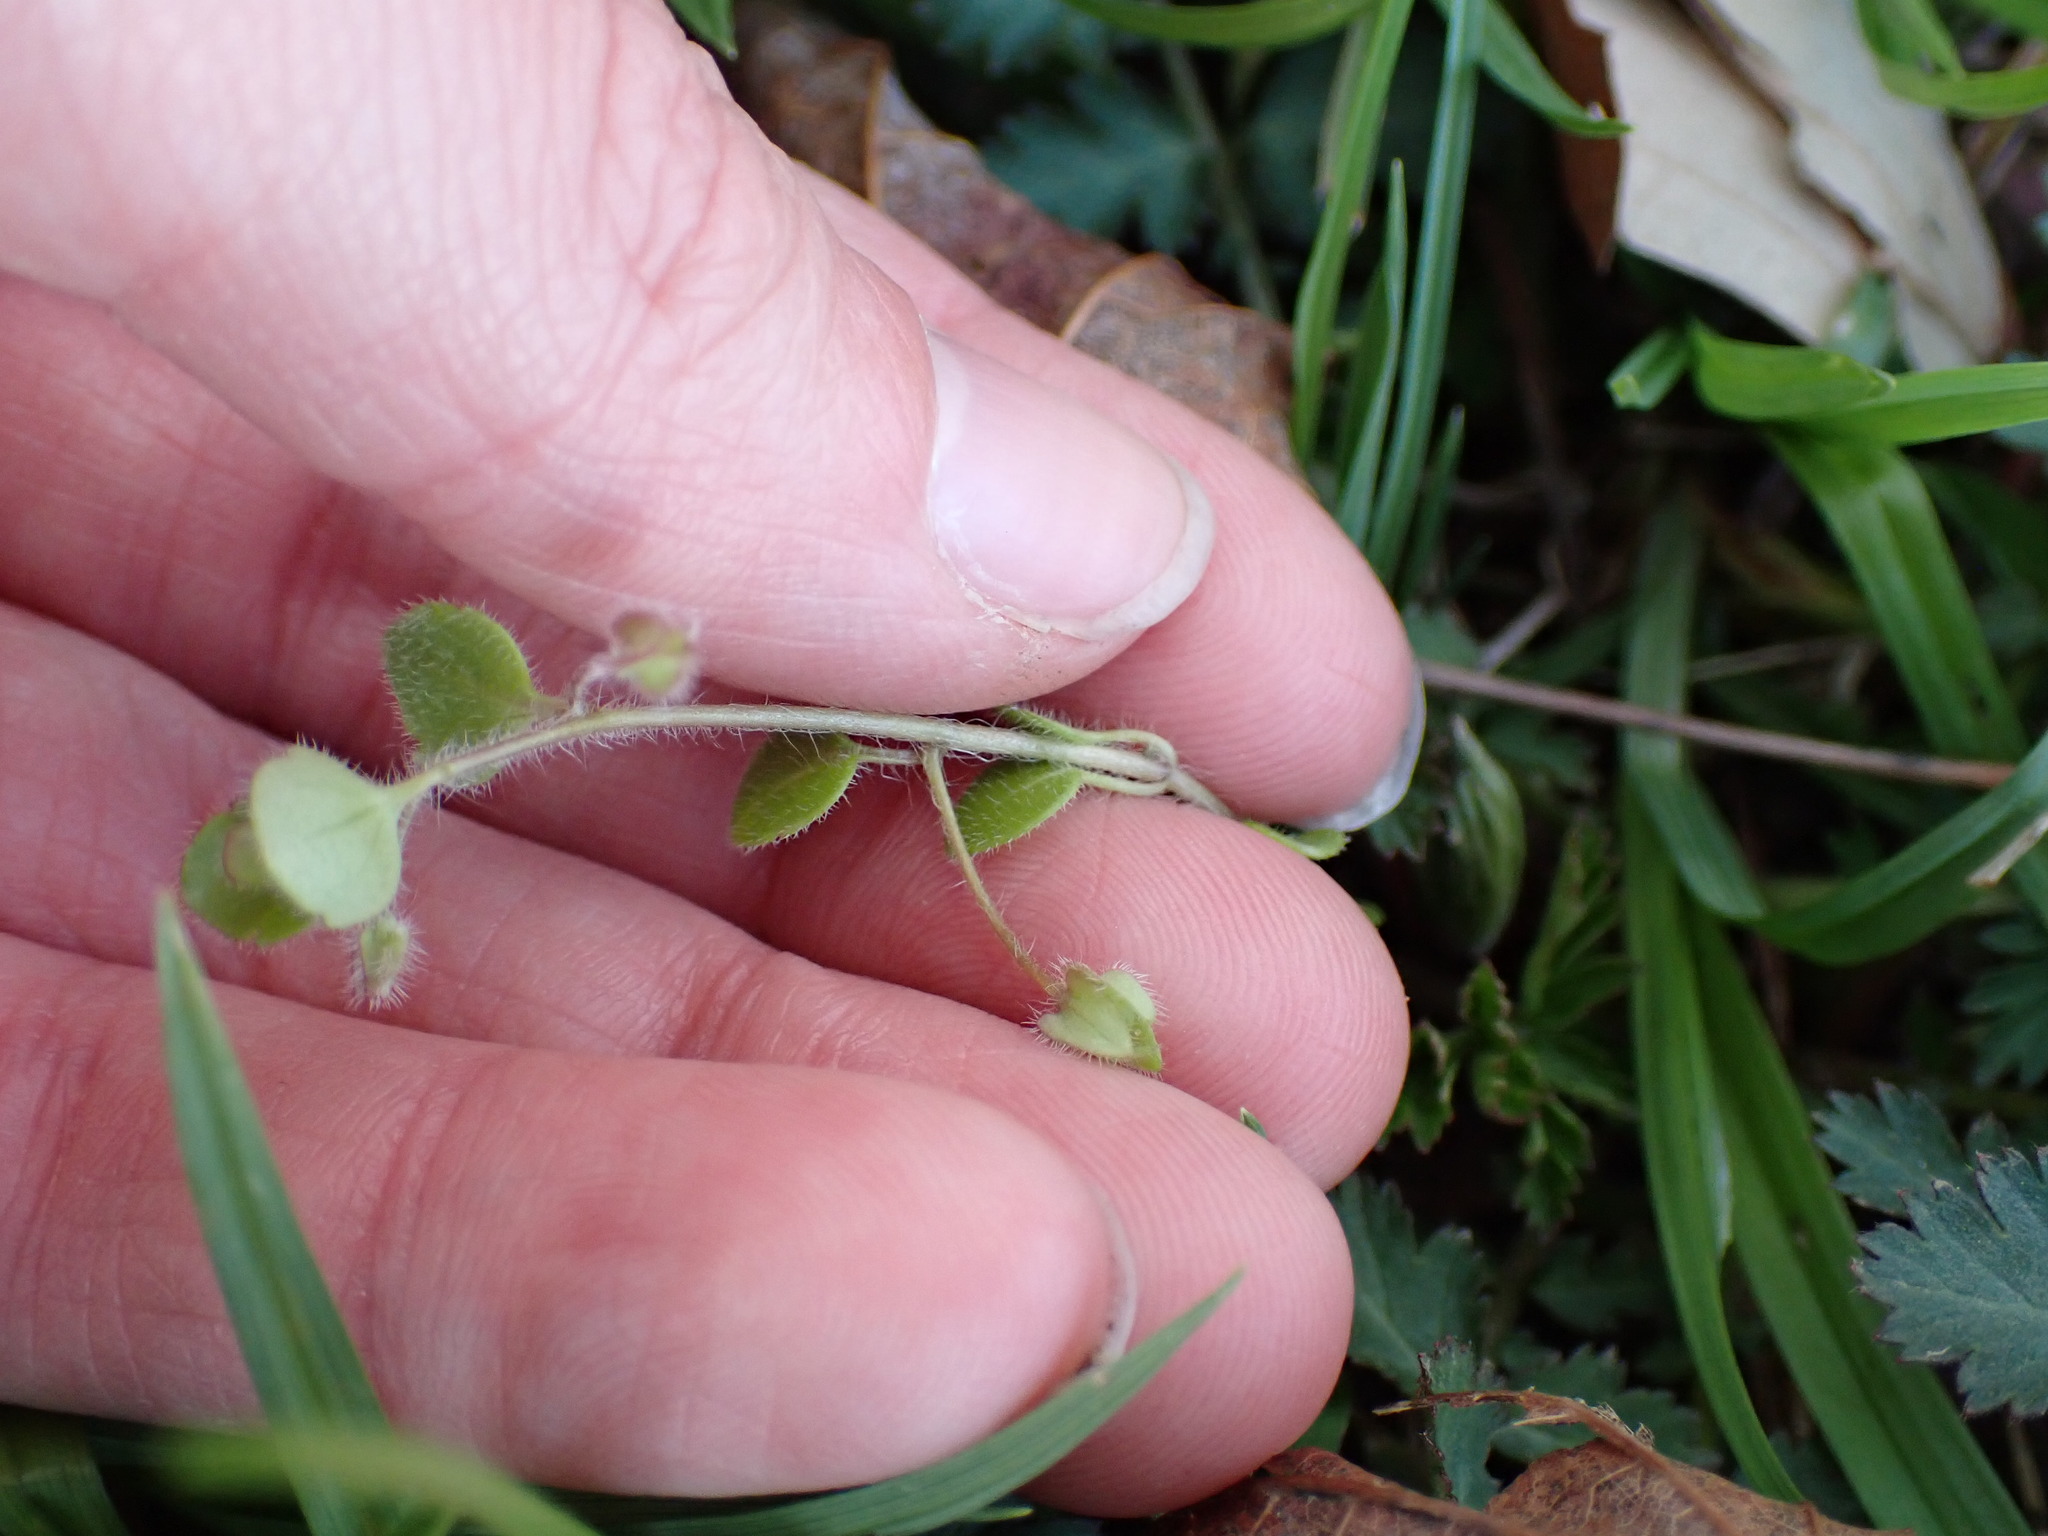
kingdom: Plantae
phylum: Tracheophyta
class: Magnoliopsida
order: Lamiales
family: Plantaginaceae
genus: Veronica
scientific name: Veronica sublobata
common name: False ivy-leaved speedwell
